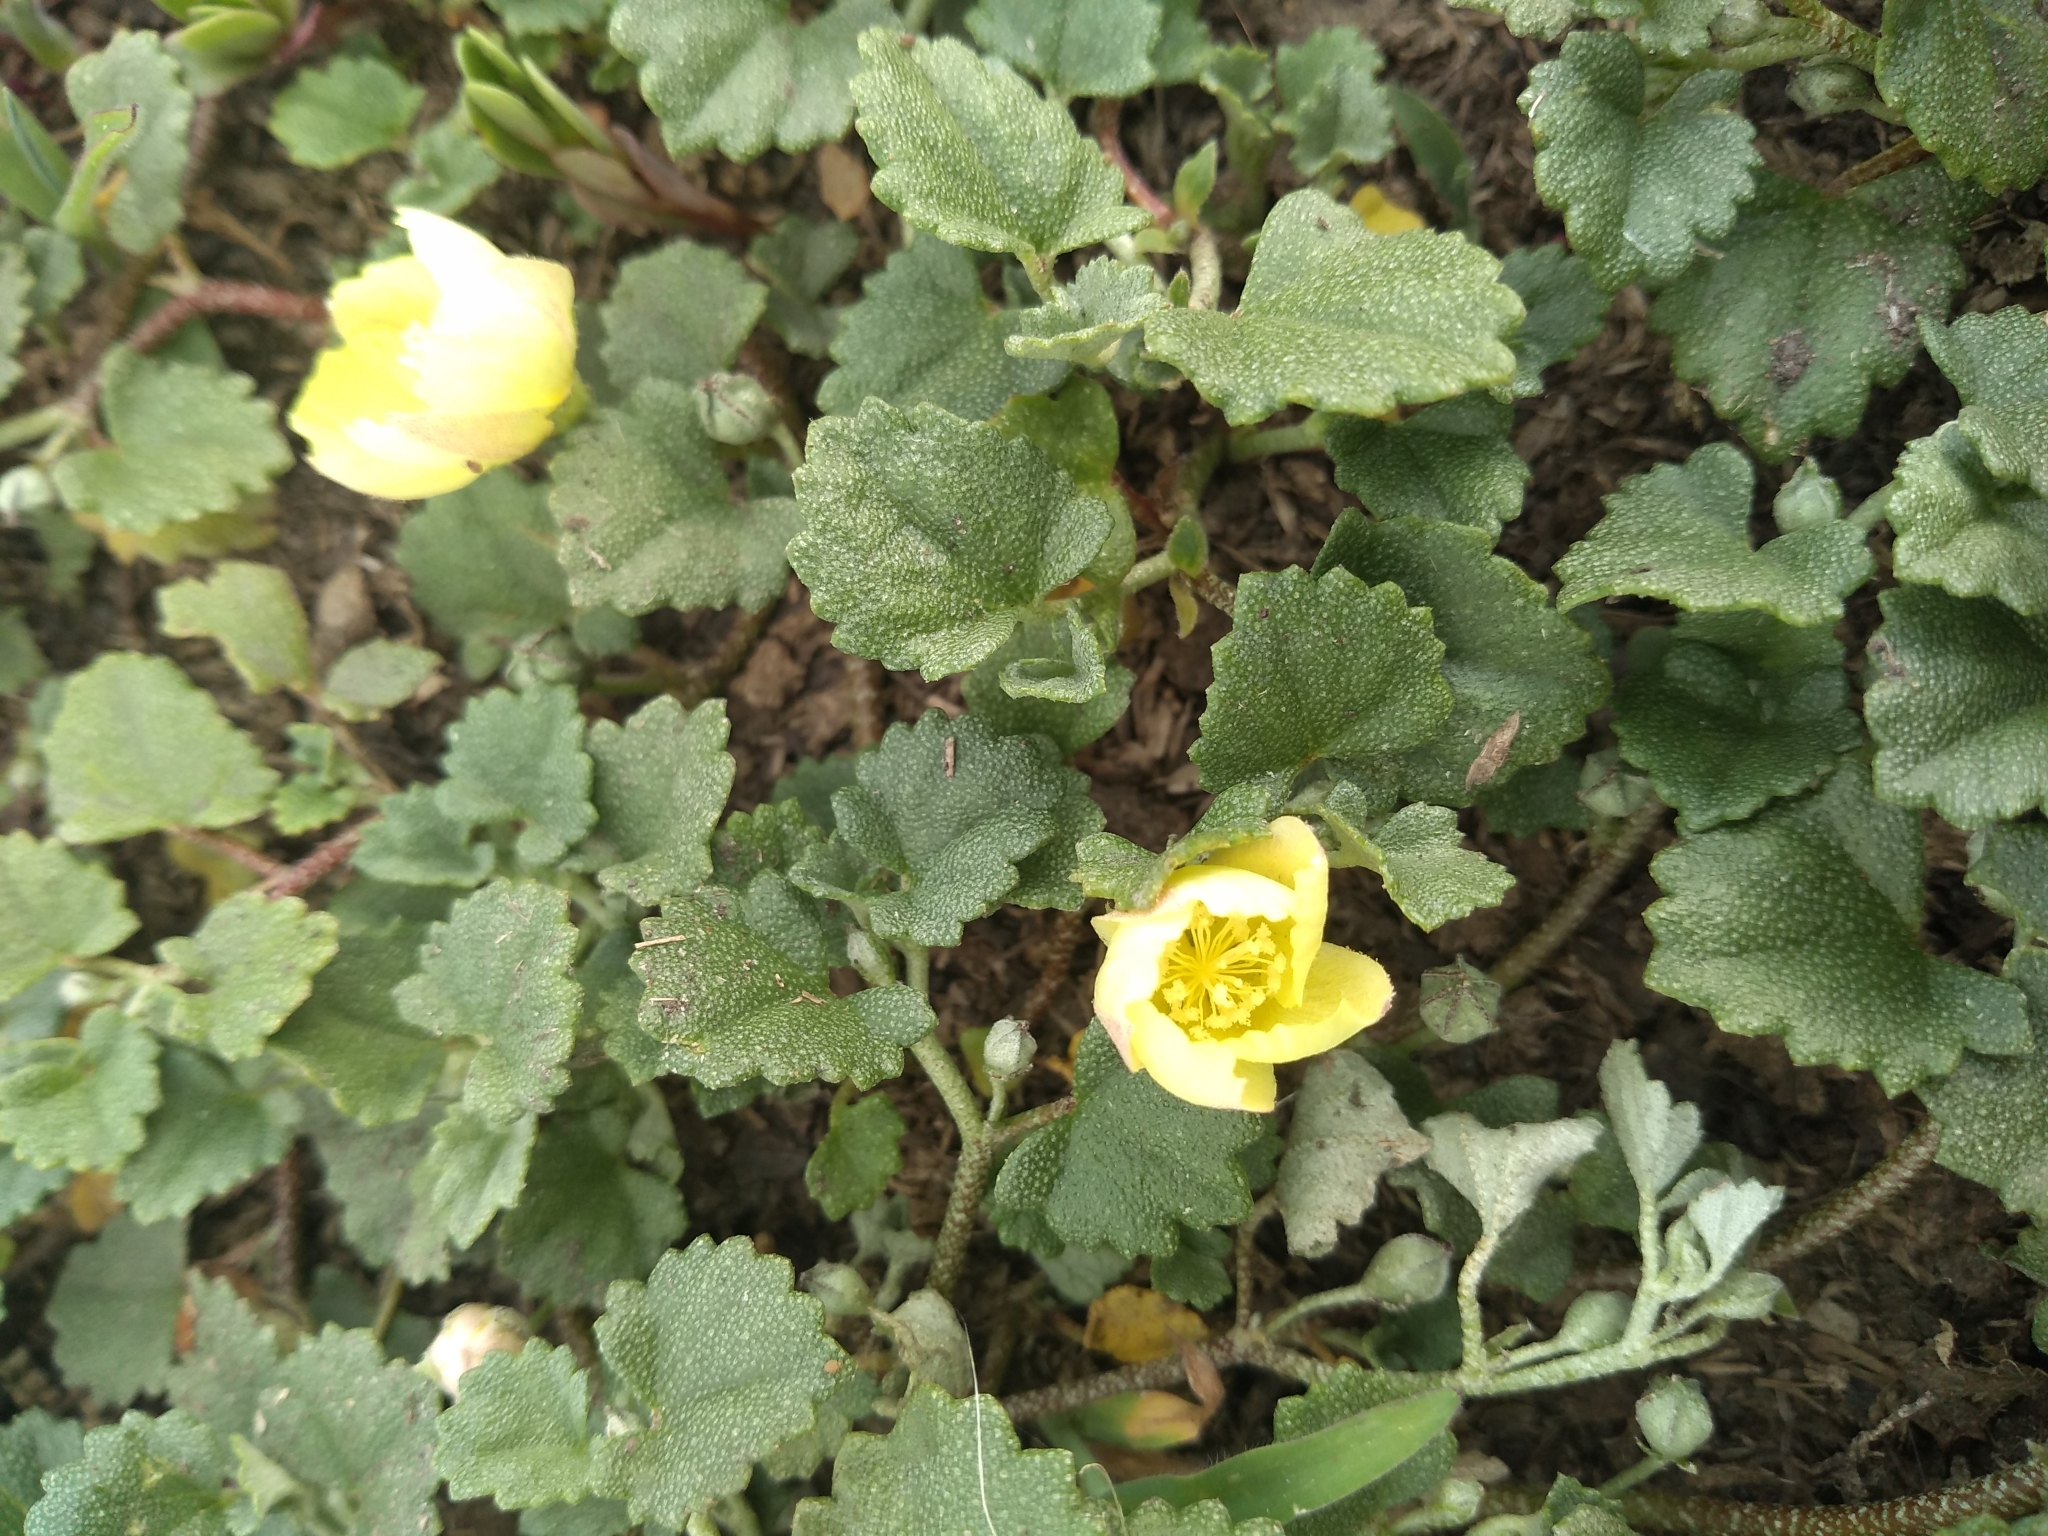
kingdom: Plantae
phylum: Tracheophyta
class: Magnoliopsida
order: Malvales
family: Malvaceae
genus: Malvella
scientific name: Malvella leprosa
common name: Alkali-mallow
